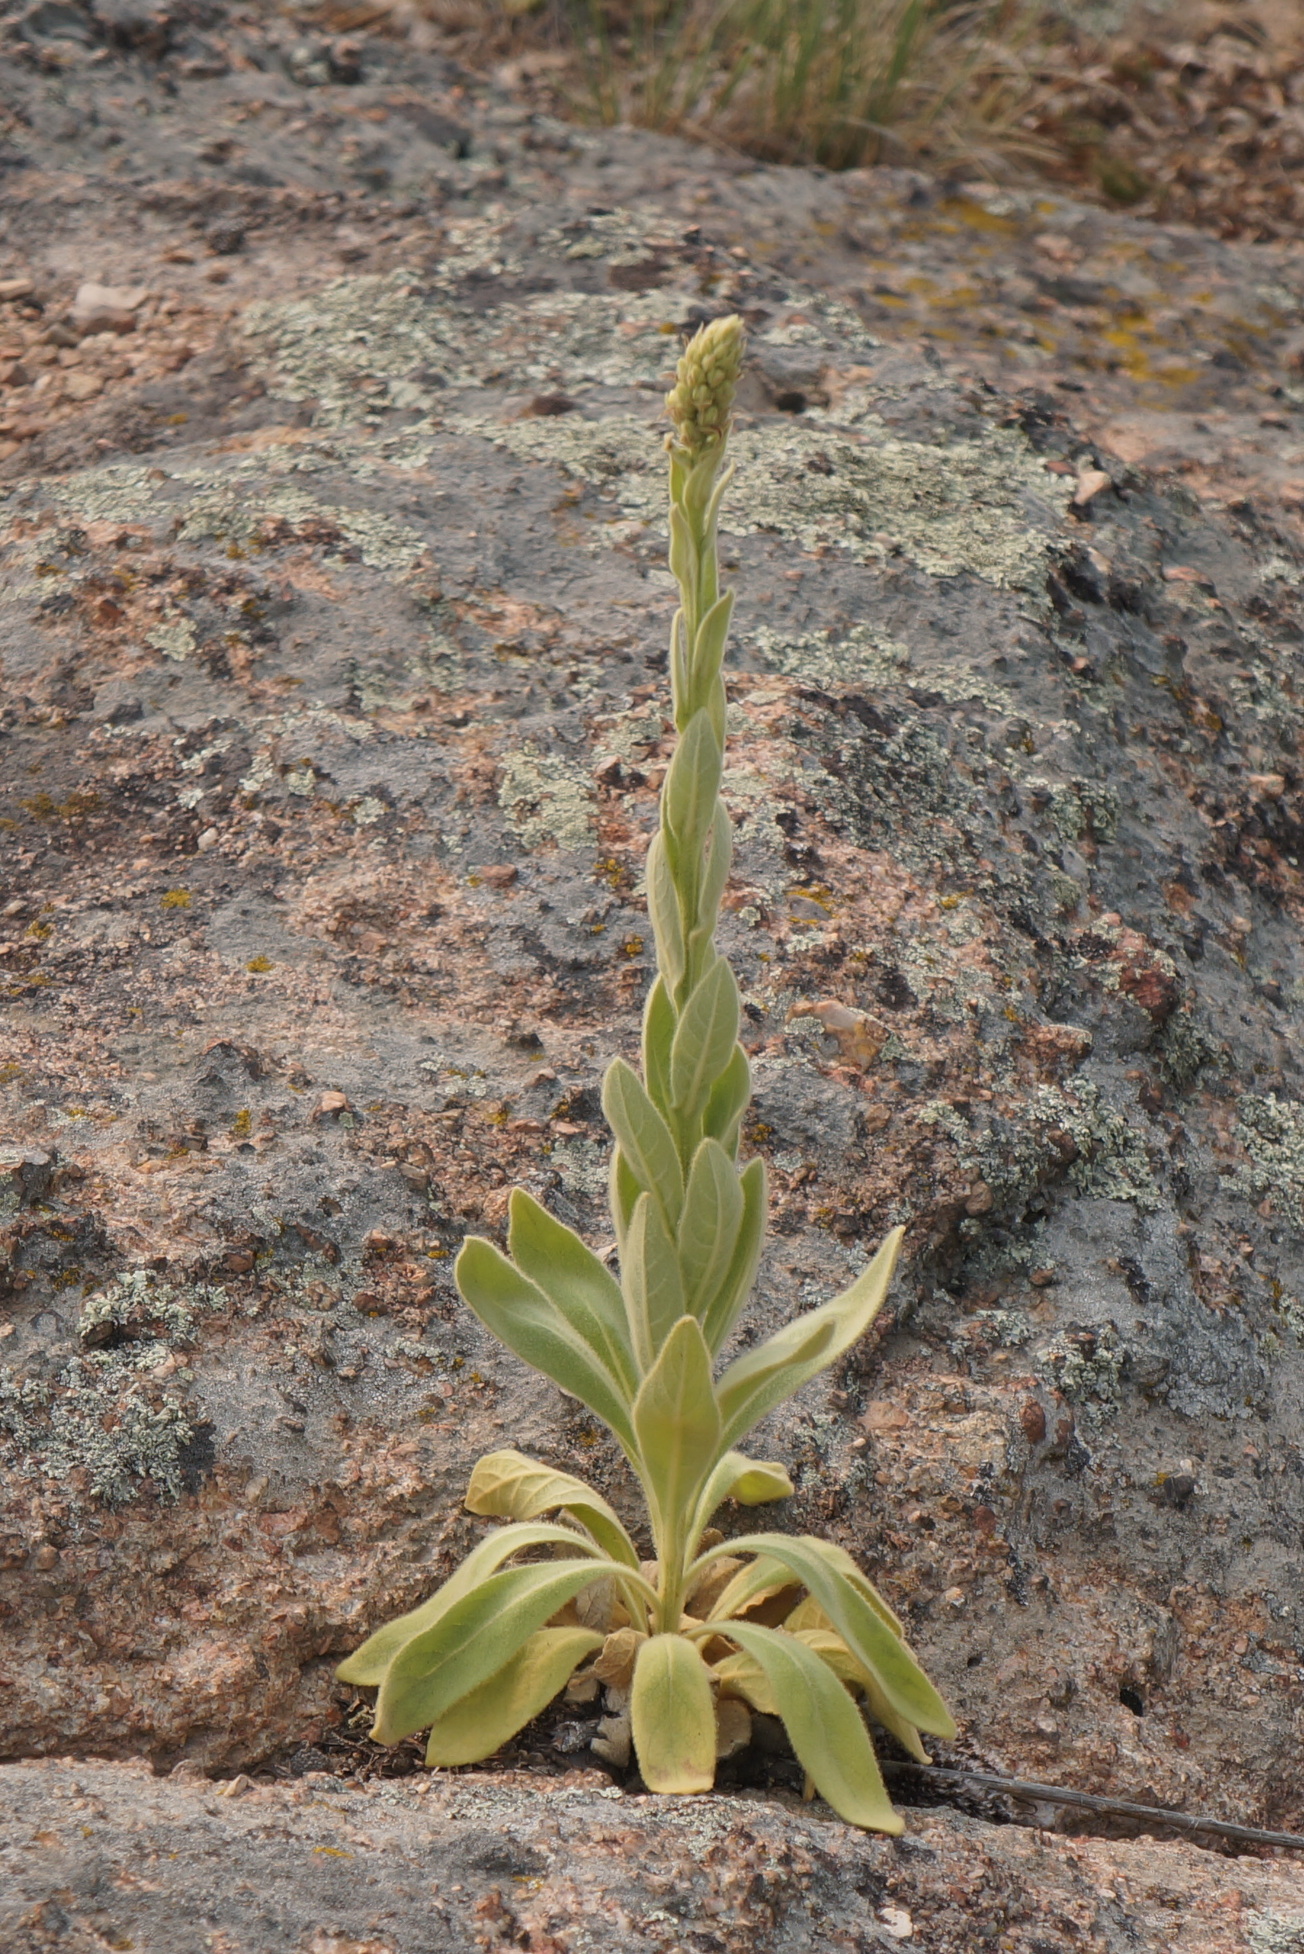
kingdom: Plantae
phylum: Tracheophyta
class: Magnoliopsida
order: Lamiales
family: Scrophulariaceae
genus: Verbascum
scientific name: Verbascum thapsus
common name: Common mullein
